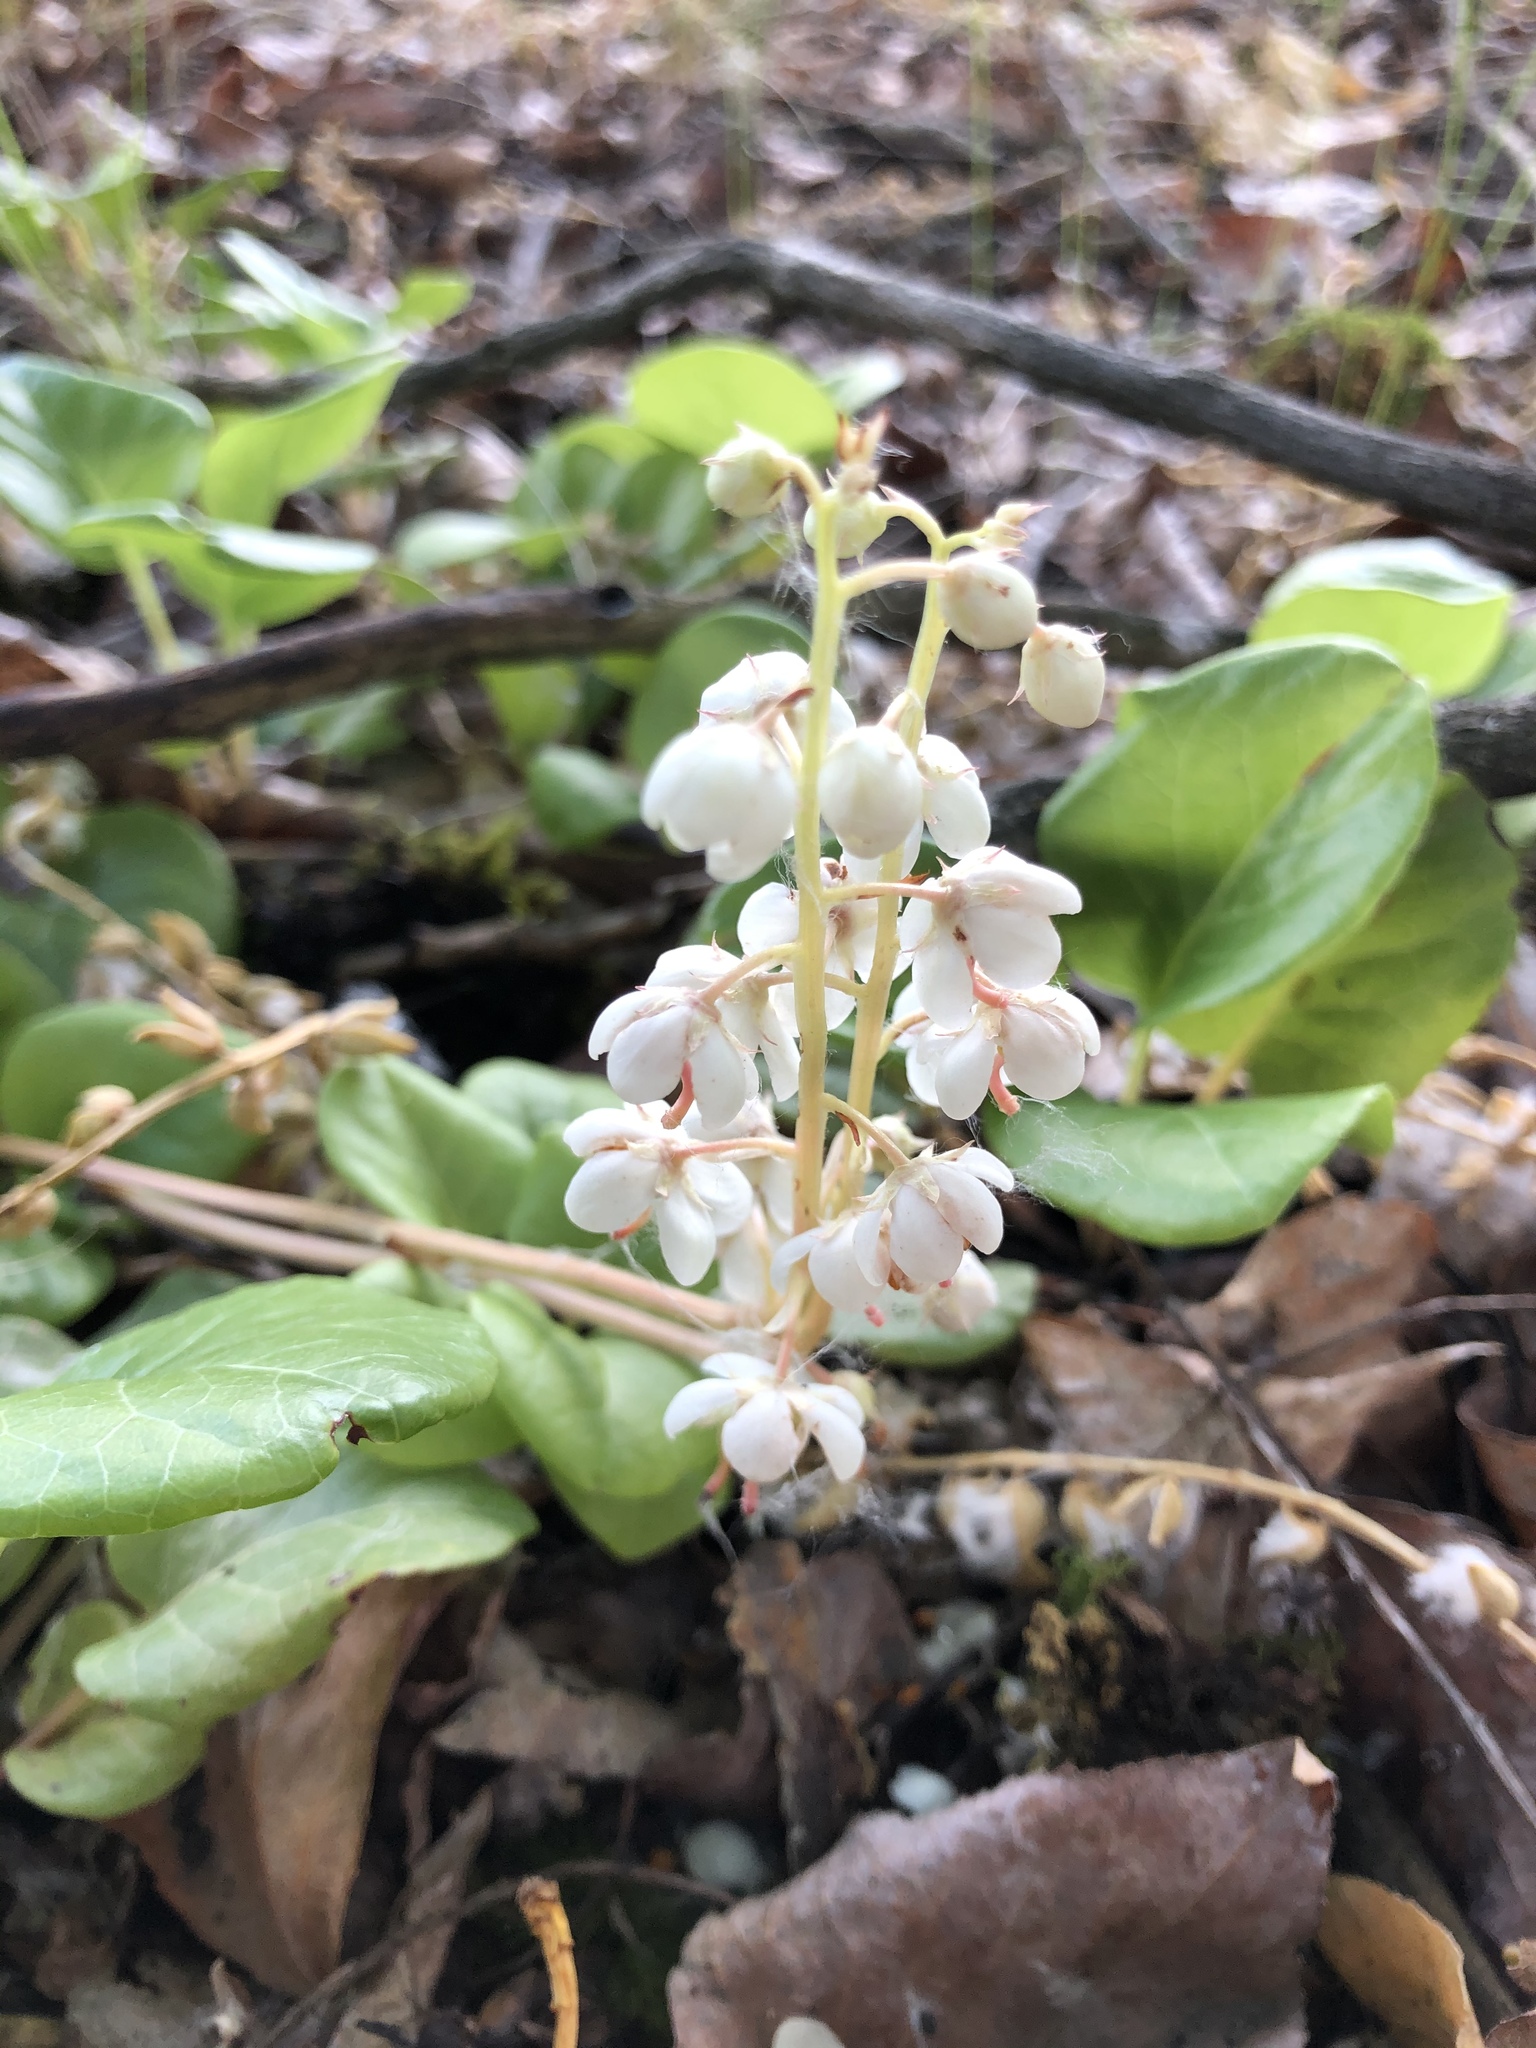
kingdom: Plantae
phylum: Tracheophyta
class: Magnoliopsida
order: Ericales
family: Ericaceae
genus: Pyrola
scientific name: Pyrola rotundifolia
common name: Round-leaved wintergreen
